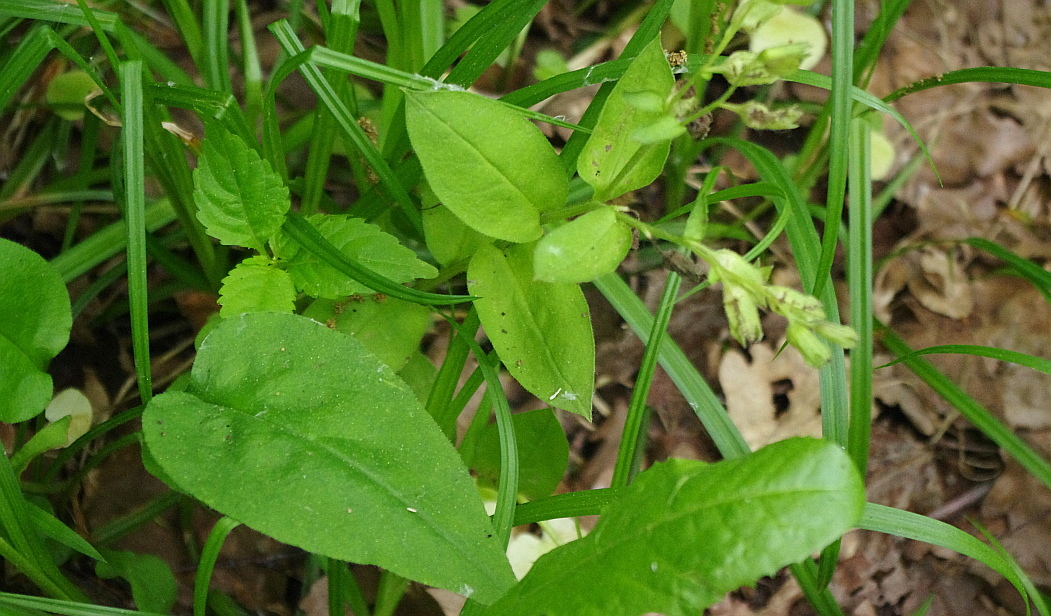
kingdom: Plantae
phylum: Tracheophyta
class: Magnoliopsida
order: Boraginales
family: Boraginaceae
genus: Pulmonaria
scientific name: Pulmonaria obscura
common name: Suffolk lungwort
